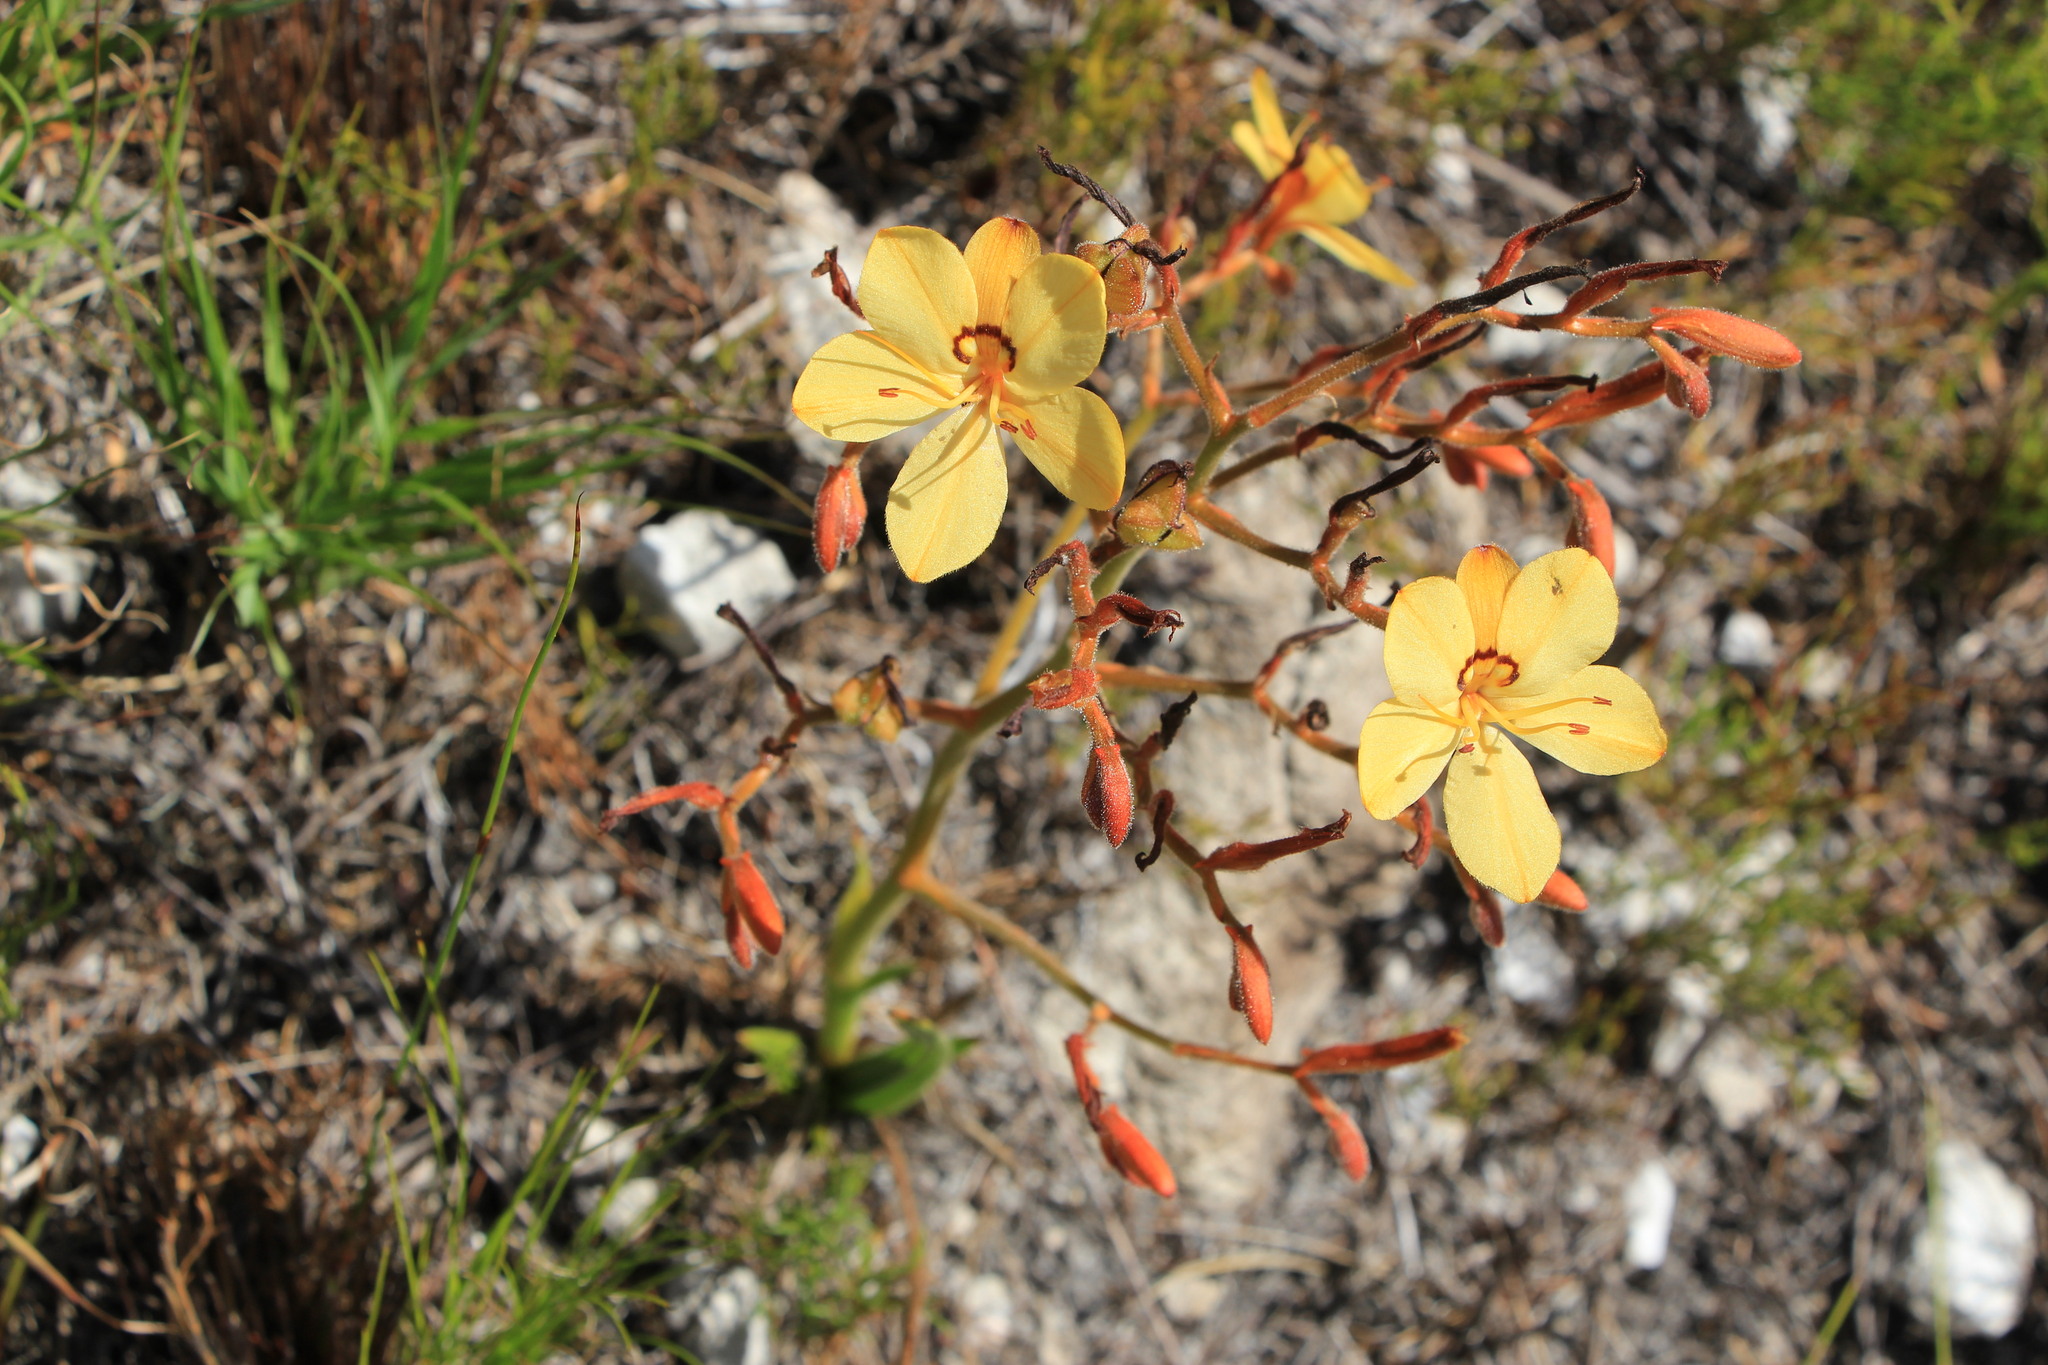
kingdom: Plantae
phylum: Tracheophyta
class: Liliopsida
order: Commelinales
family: Haemodoraceae
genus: Wachendorfia
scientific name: Wachendorfia paniculata
